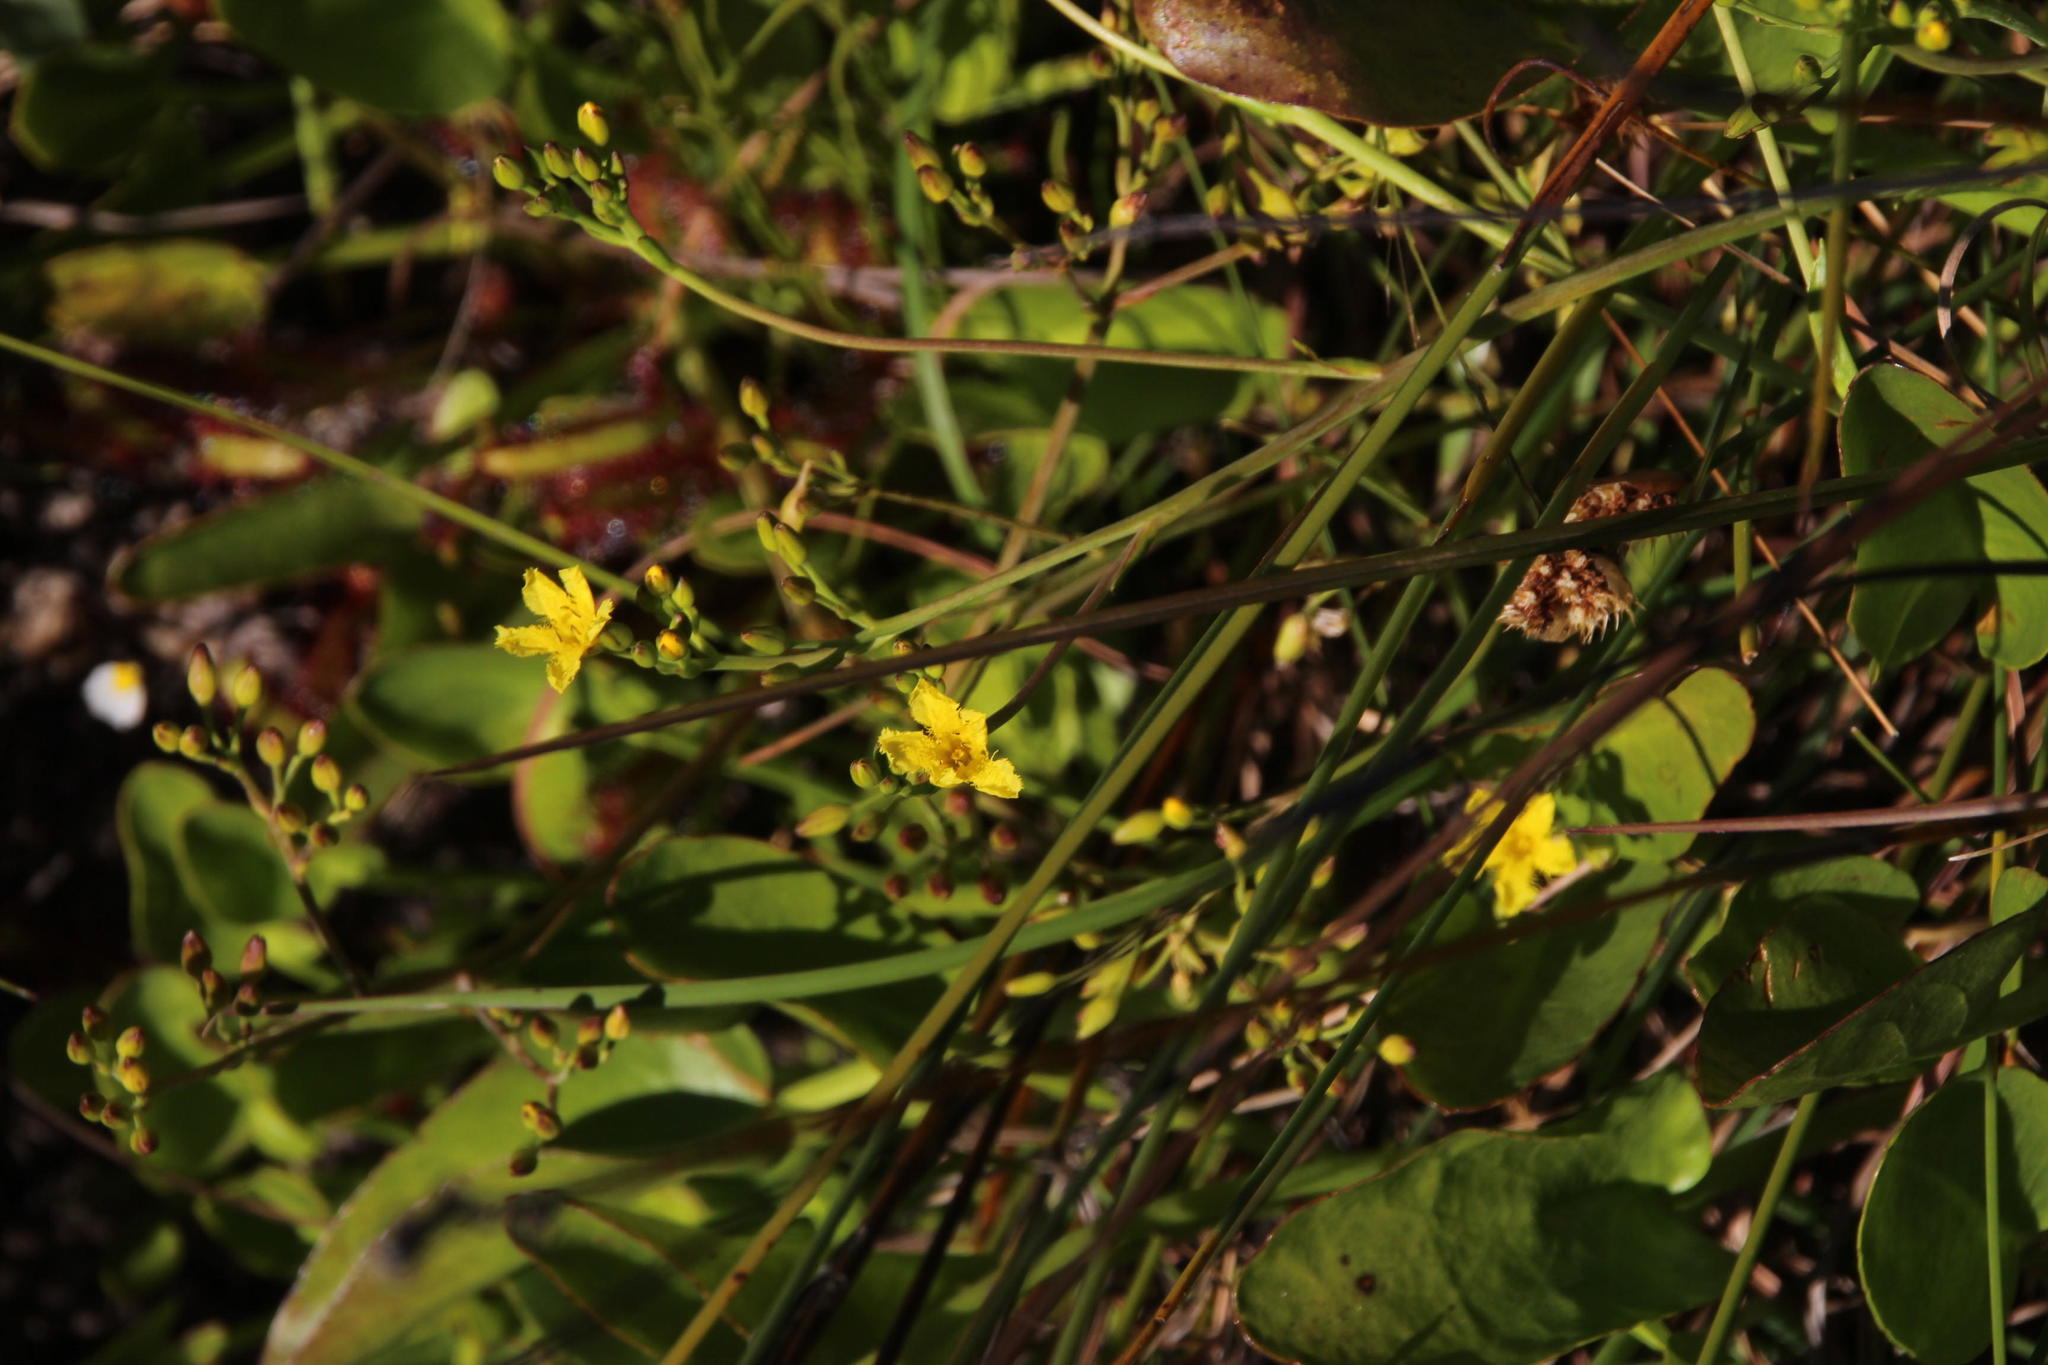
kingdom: Plantae
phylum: Tracheophyta
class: Magnoliopsida
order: Asterales
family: Menyanthaceae
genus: Villarsia
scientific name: Villarsia capensis
